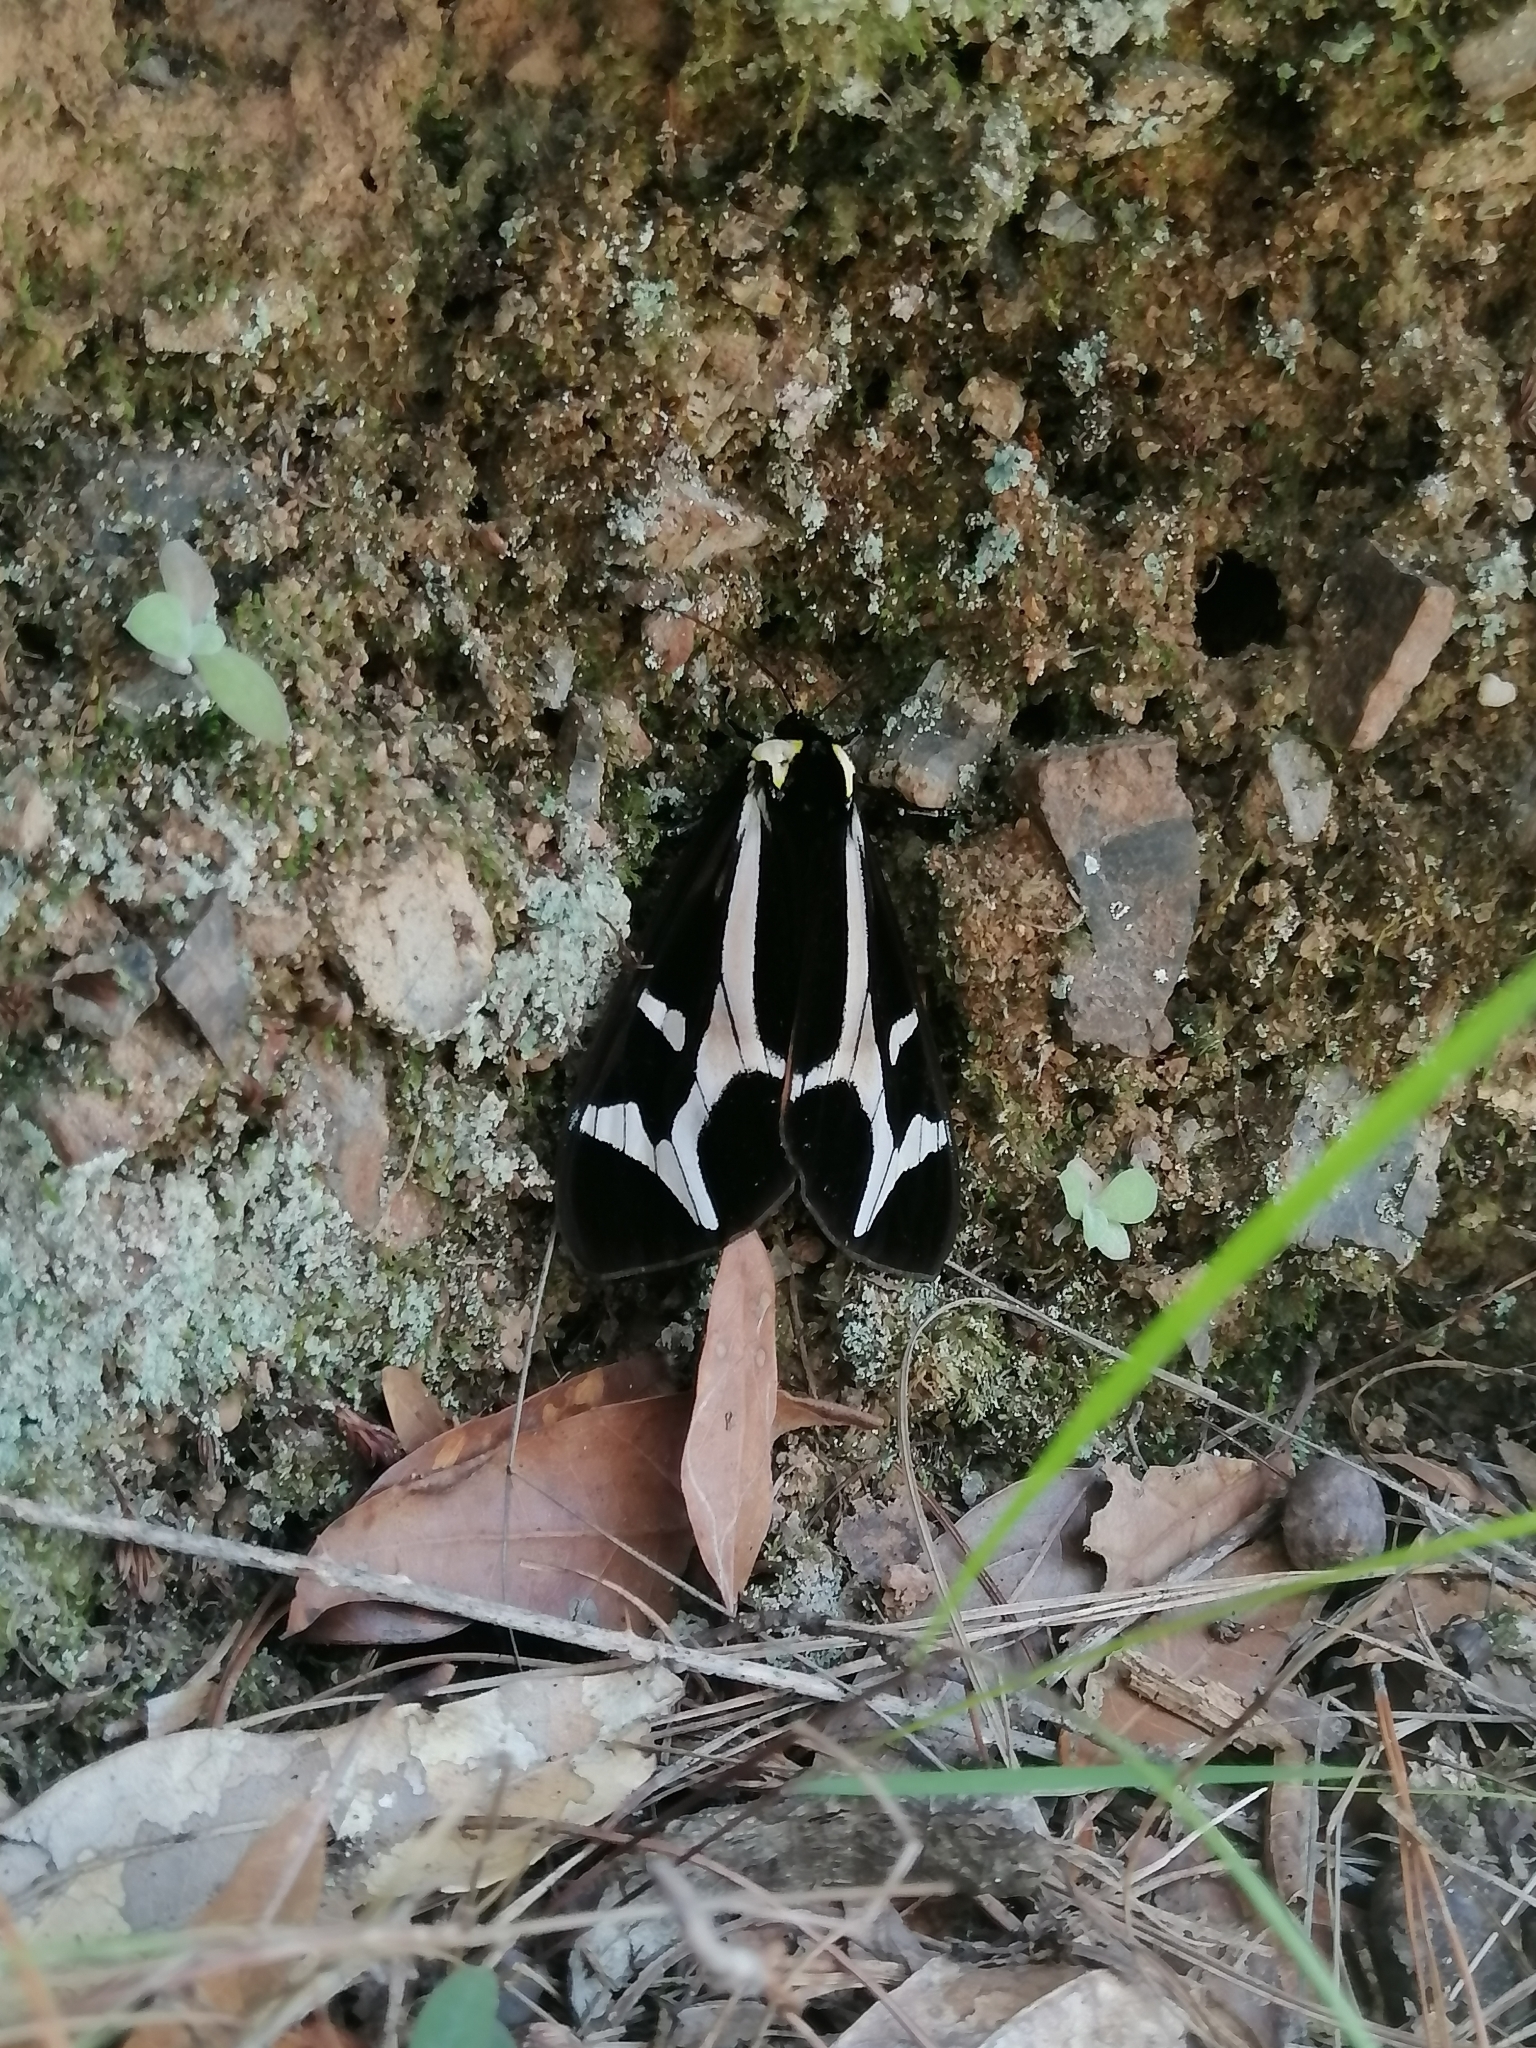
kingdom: Animalia
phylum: Arthropoda
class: Insecta
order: Lepidoptera
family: Erebidae
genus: Dysschema
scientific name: Dysschema howardi
